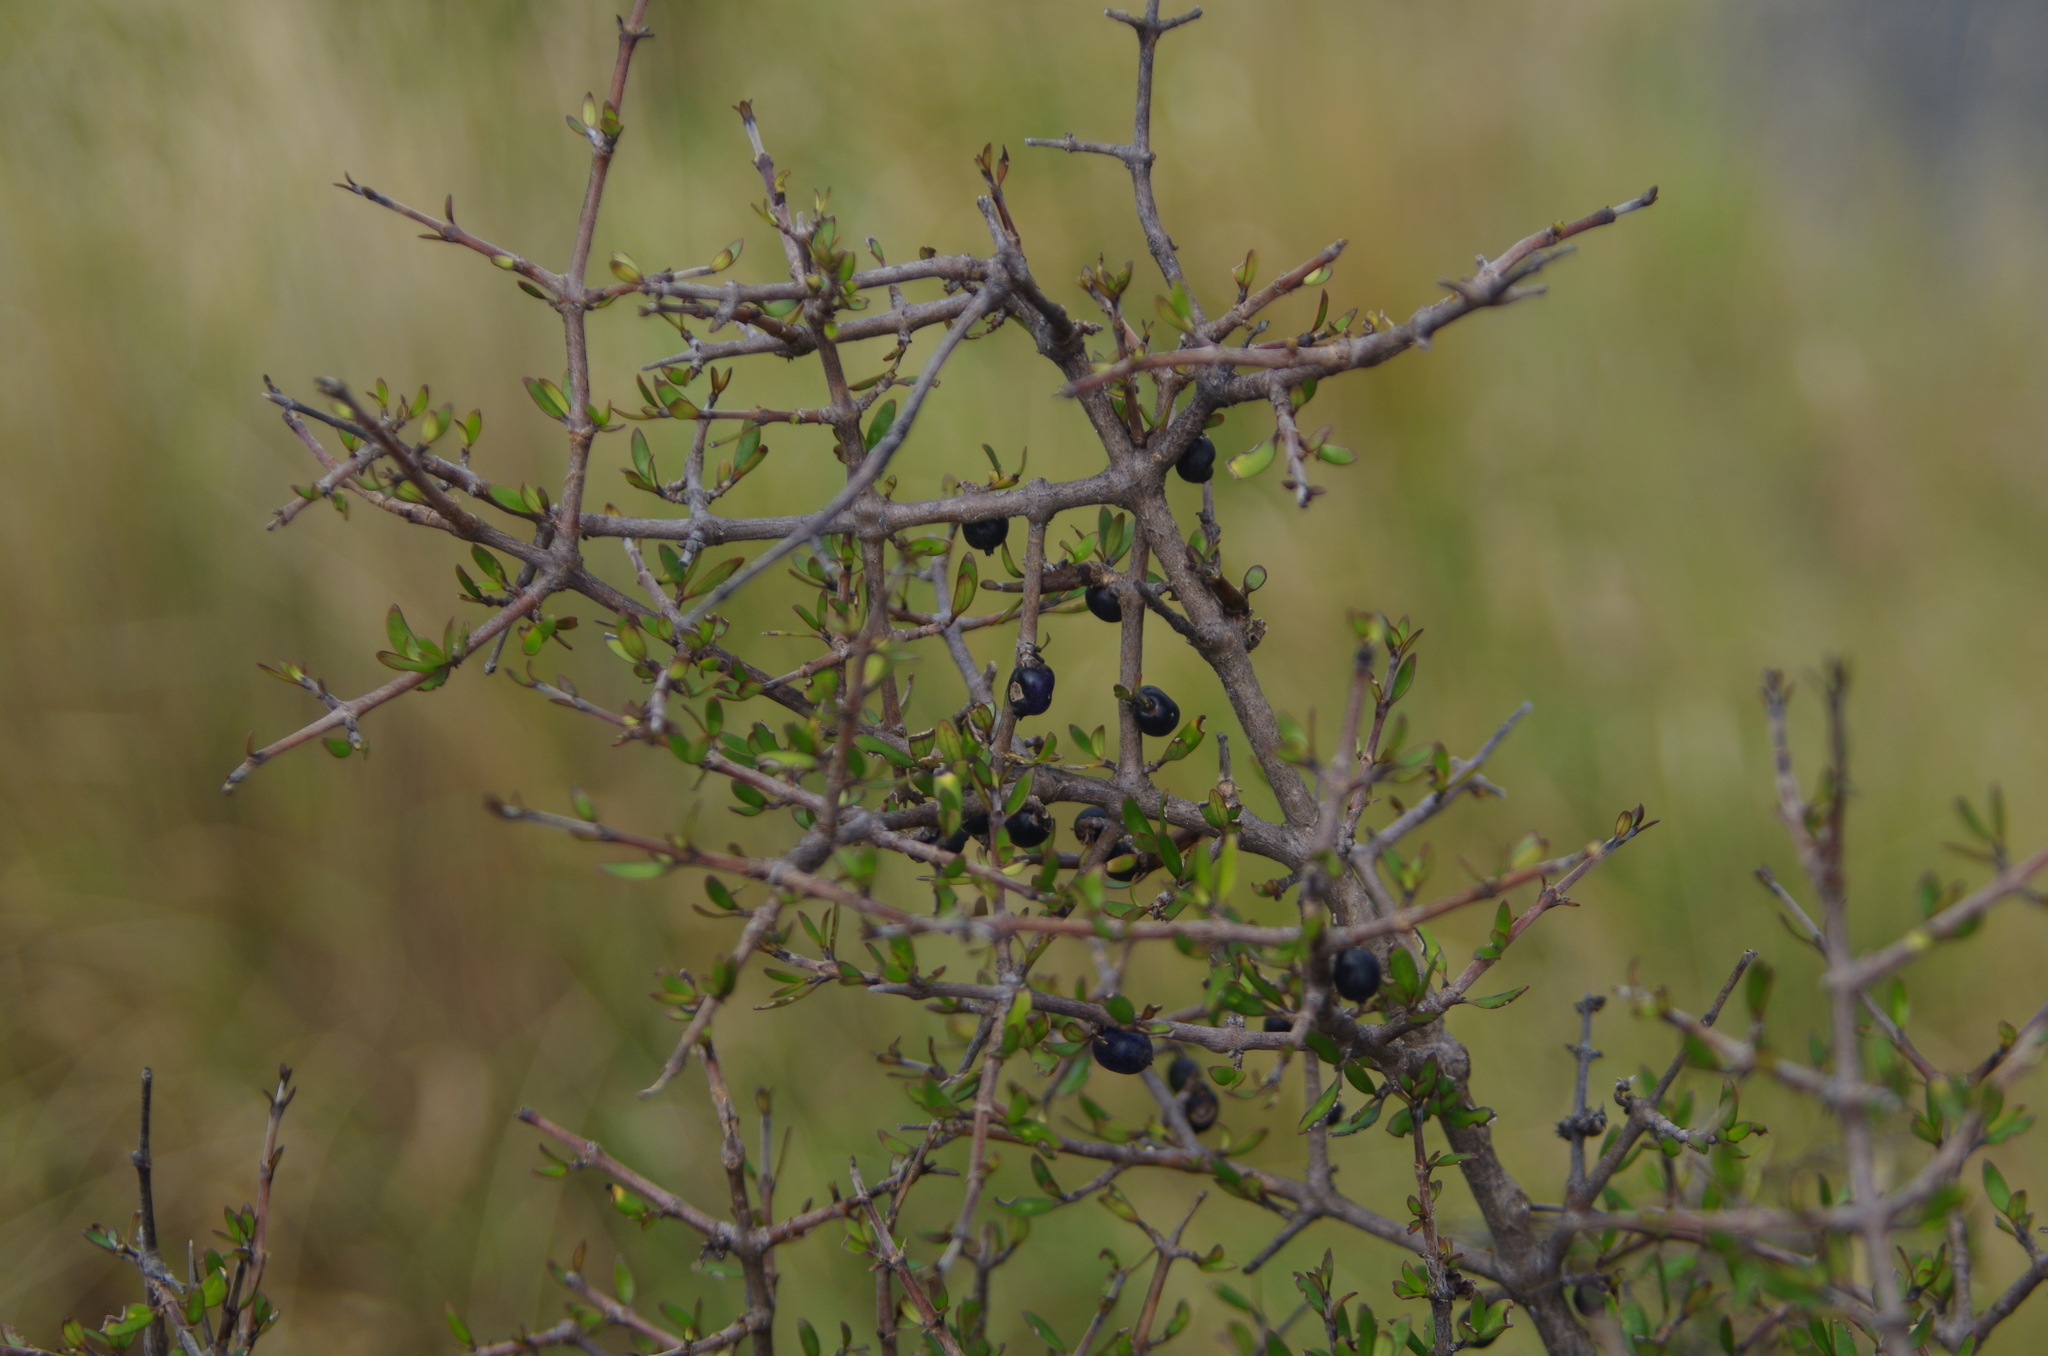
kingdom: Plantae
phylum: Tracheophyta
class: Magnoliopsida
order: Gentianales
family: Rubiaceae
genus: Coprosma
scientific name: Coprosma propinqua
